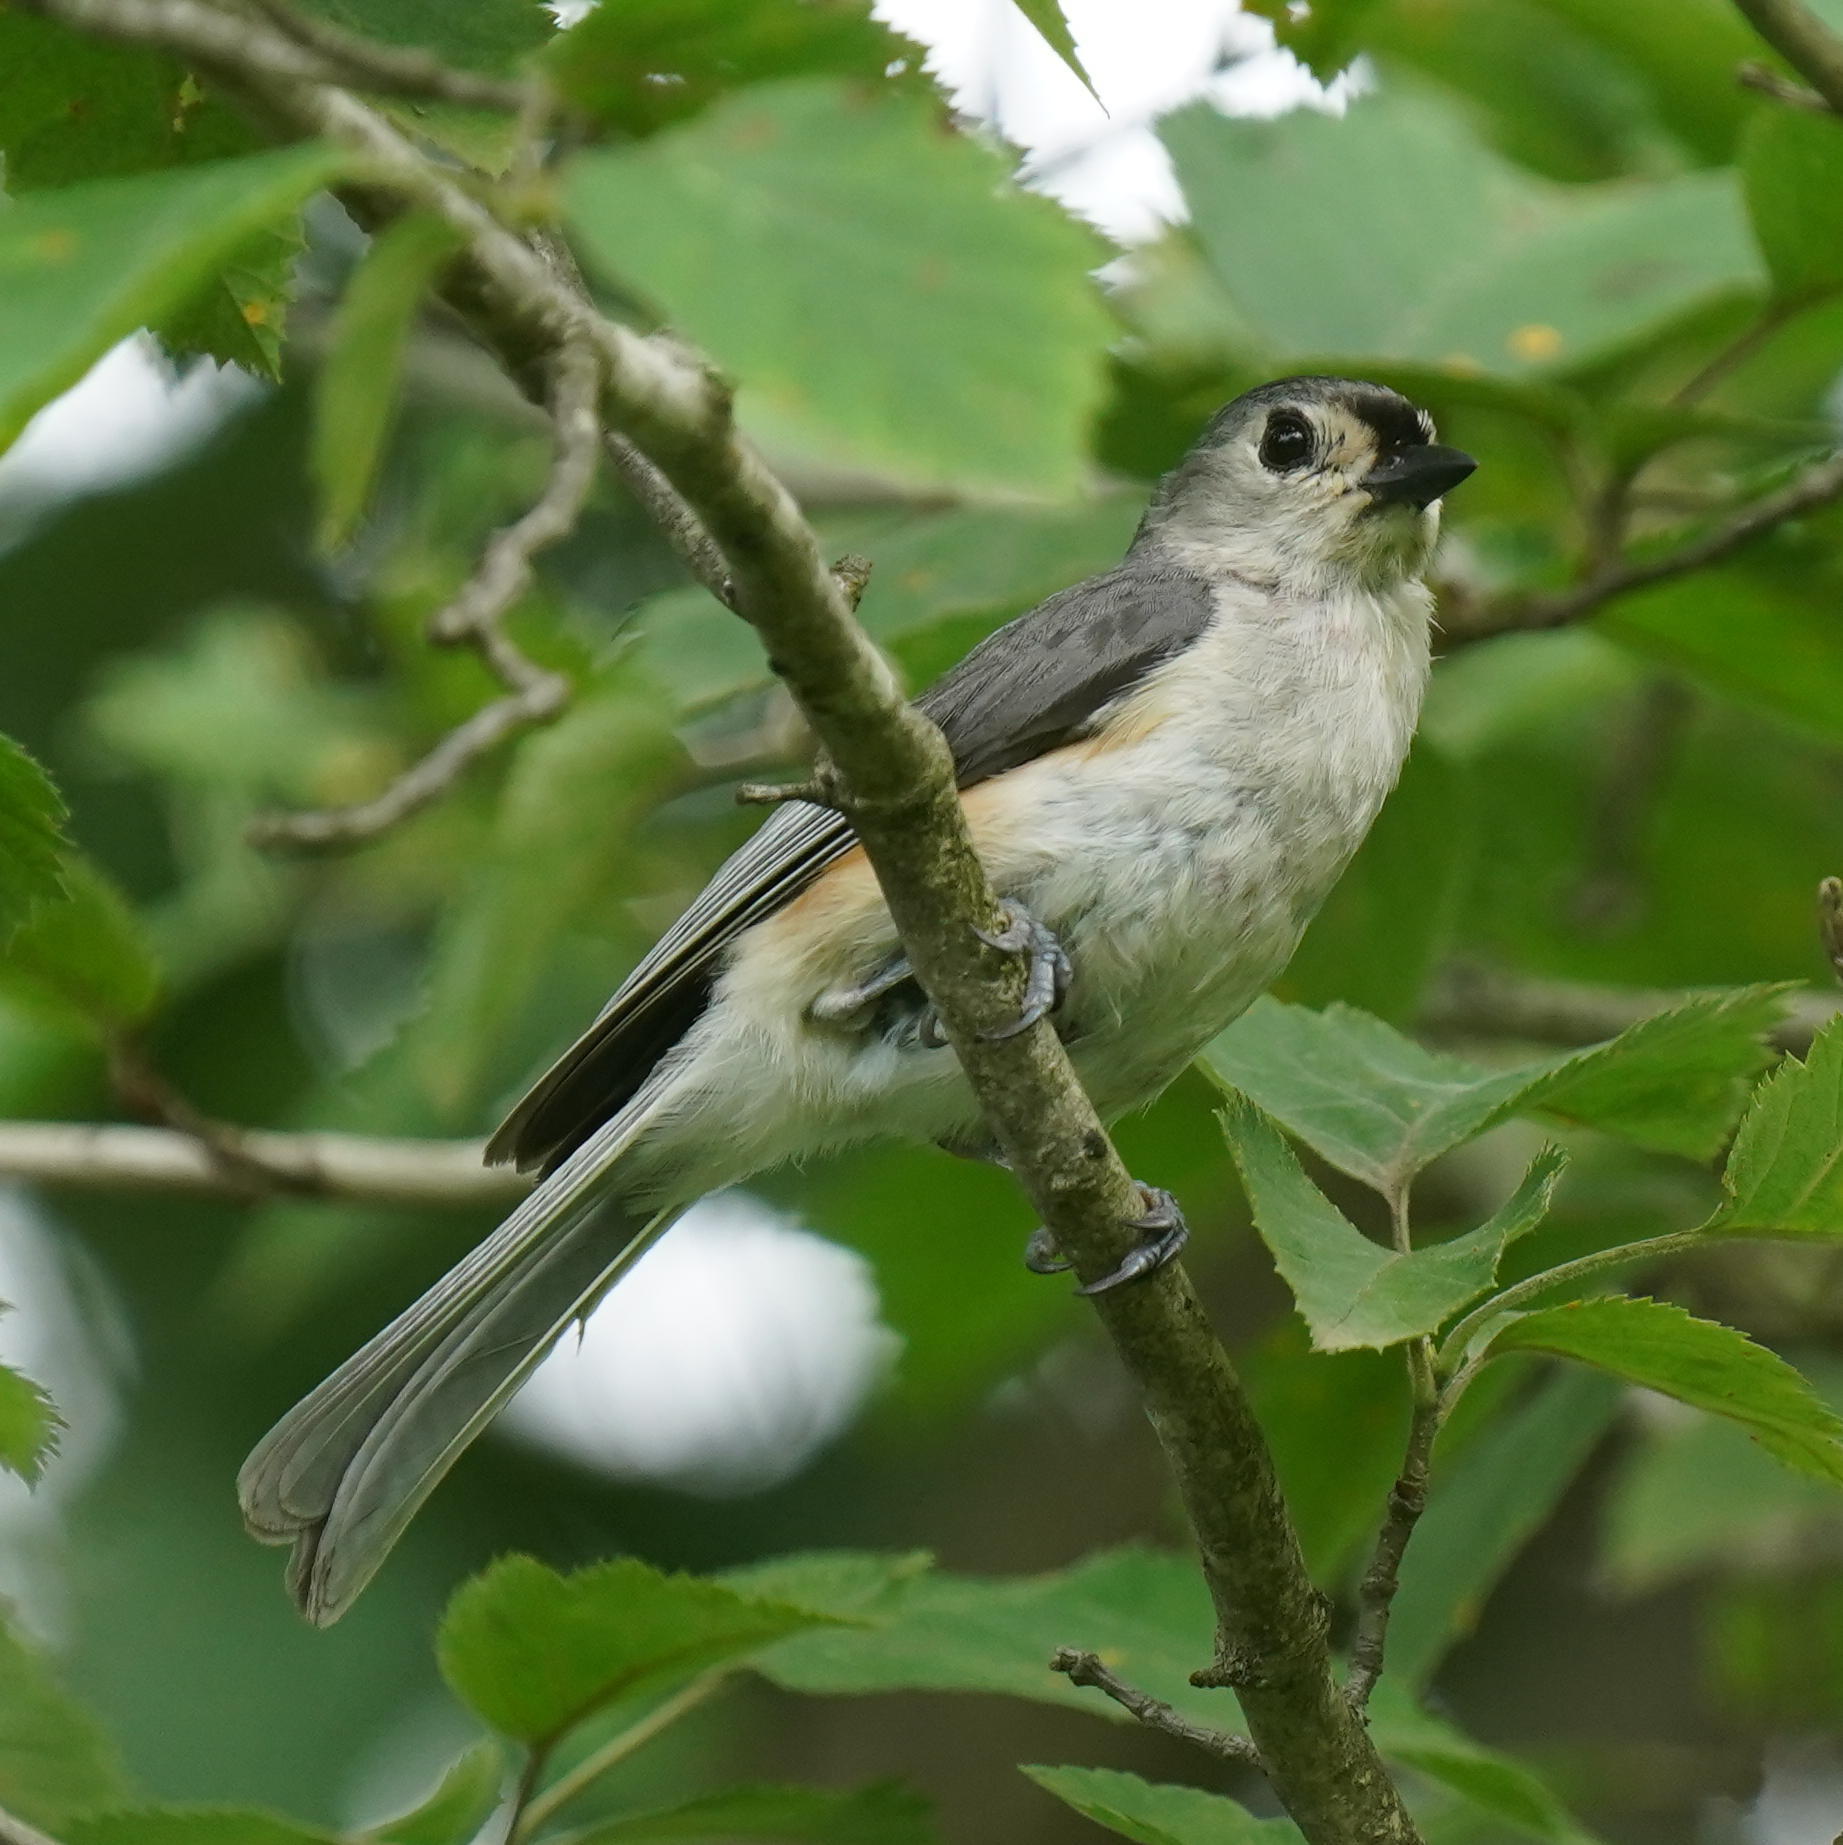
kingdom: Animalia
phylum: Chordata
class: Aves
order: Passeriformes
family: Paridae
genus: Baeolophus
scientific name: Baeolophus bicolor
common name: Tufted titmouse
